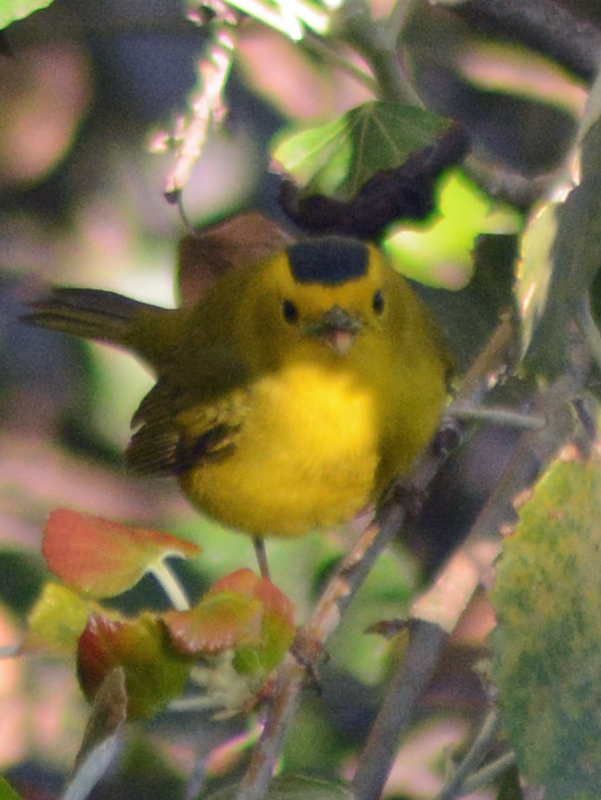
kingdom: Animalia
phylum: Chordata
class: Aves
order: Passeriformes
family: Parulidae
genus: Cardellina
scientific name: Cardellina pusilla
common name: Wilson's warbler
